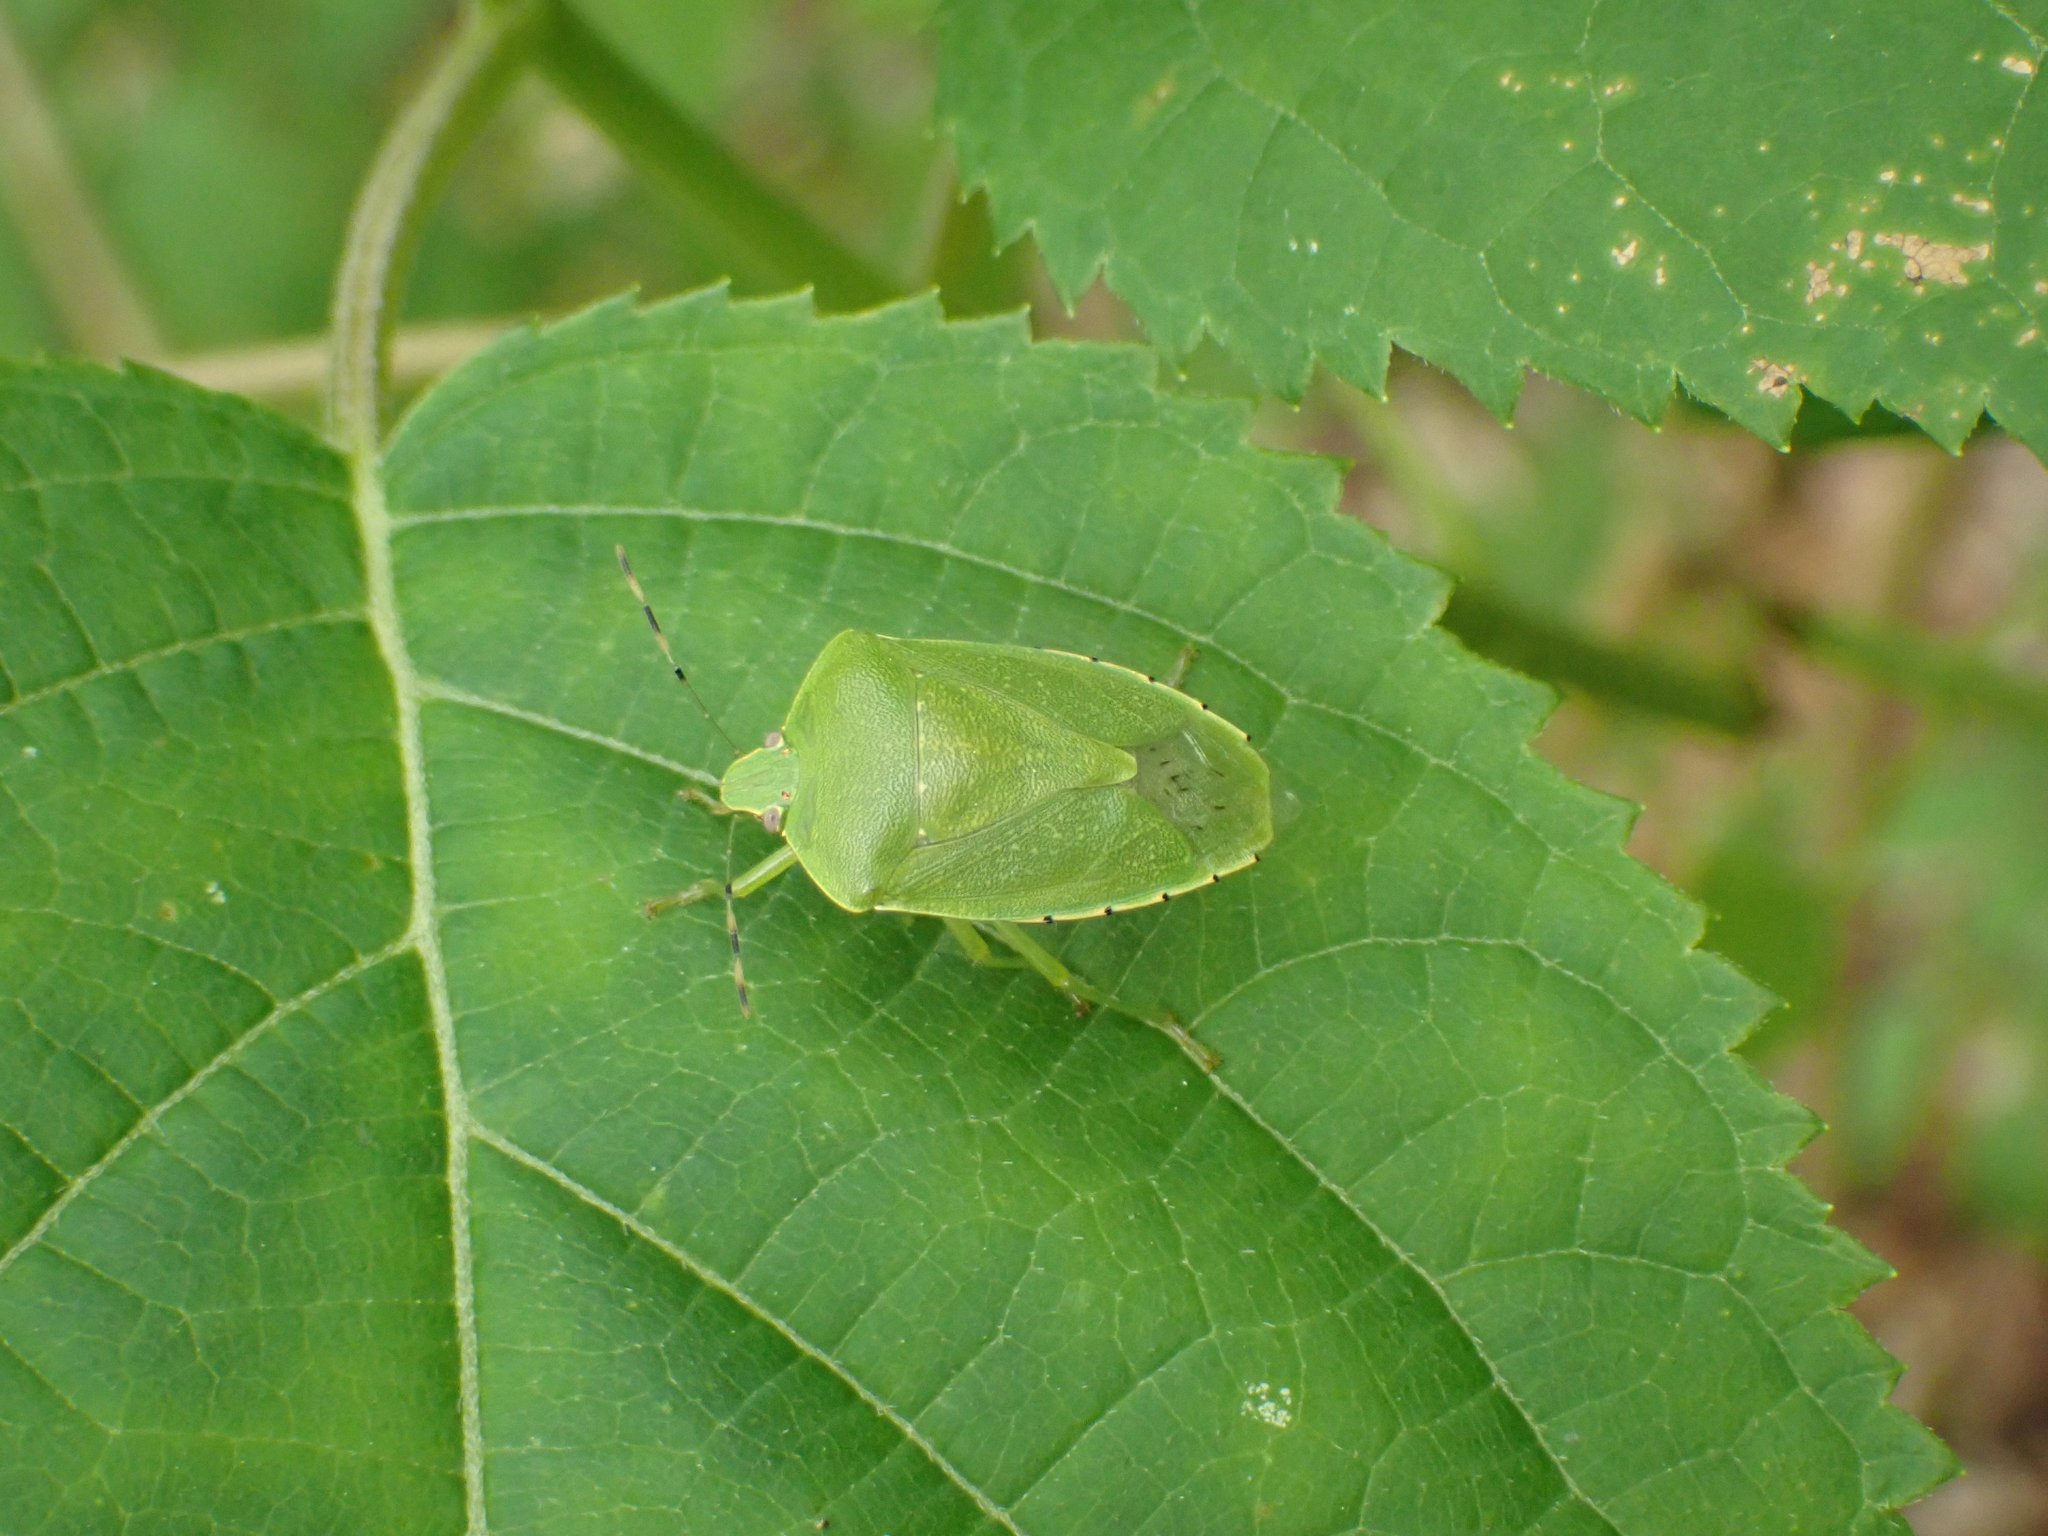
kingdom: Animalia
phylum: Arthropoda
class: Insecta
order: Hemiptera
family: Pentatomidae
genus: Chinavia
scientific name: Chinavia hilaris
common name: Green stink bug
